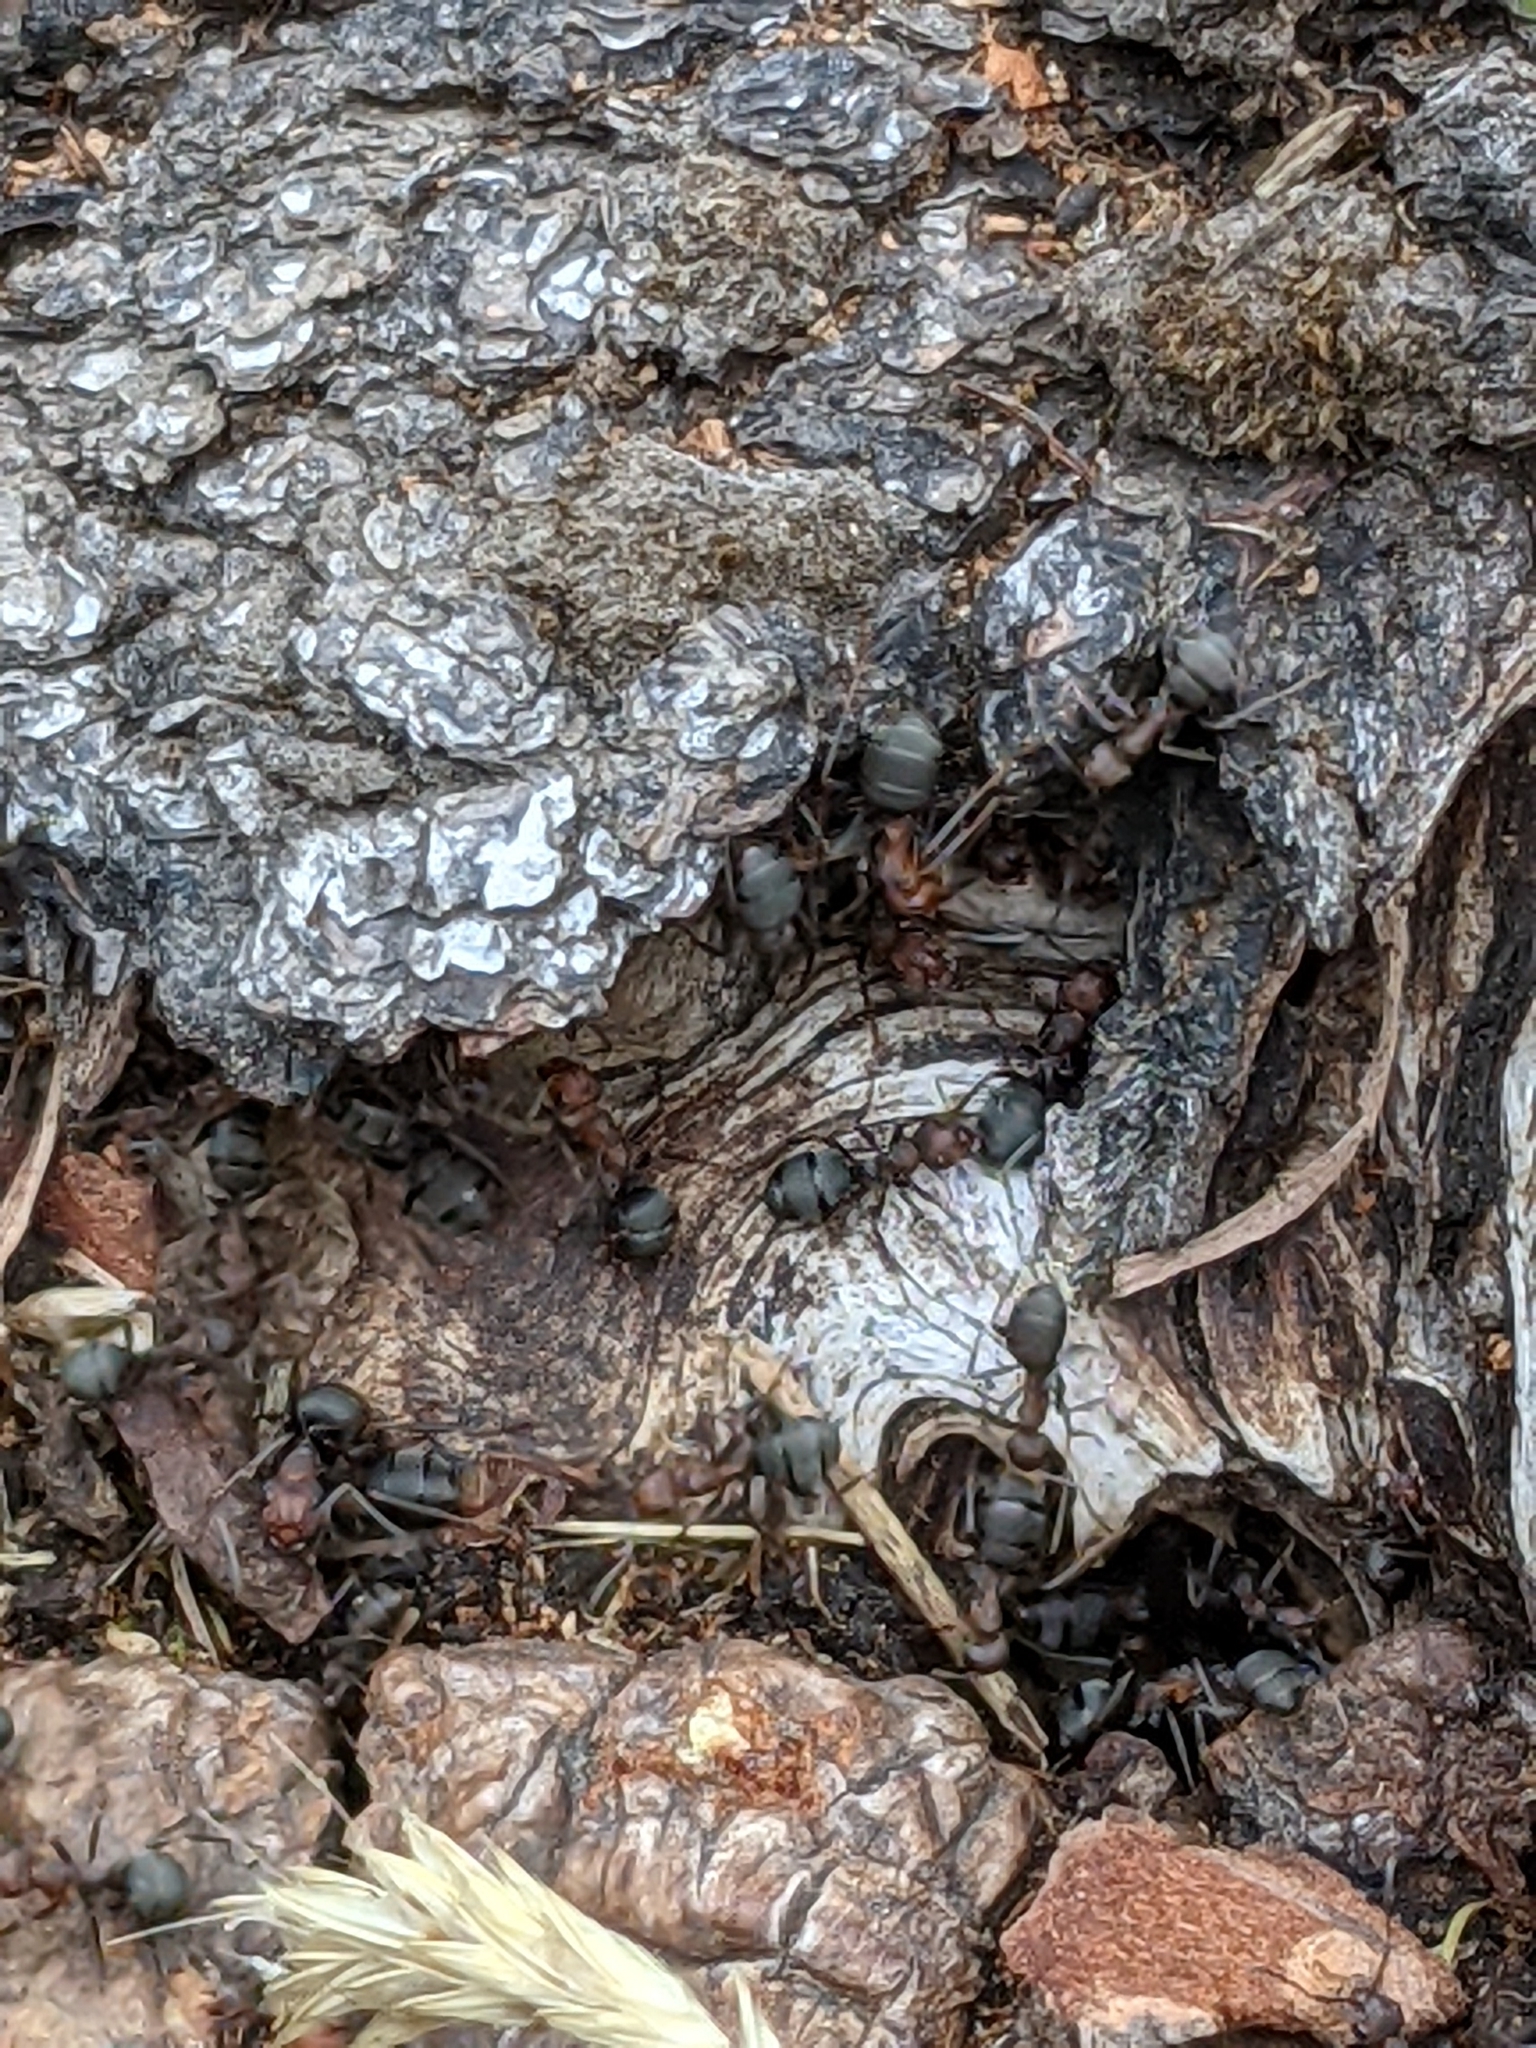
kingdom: Animalia
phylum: Arthropoda
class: Insecta
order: Hymenoptera
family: Formicidae
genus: Formica
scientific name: Formica obscuripes
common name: Western thatching ant
